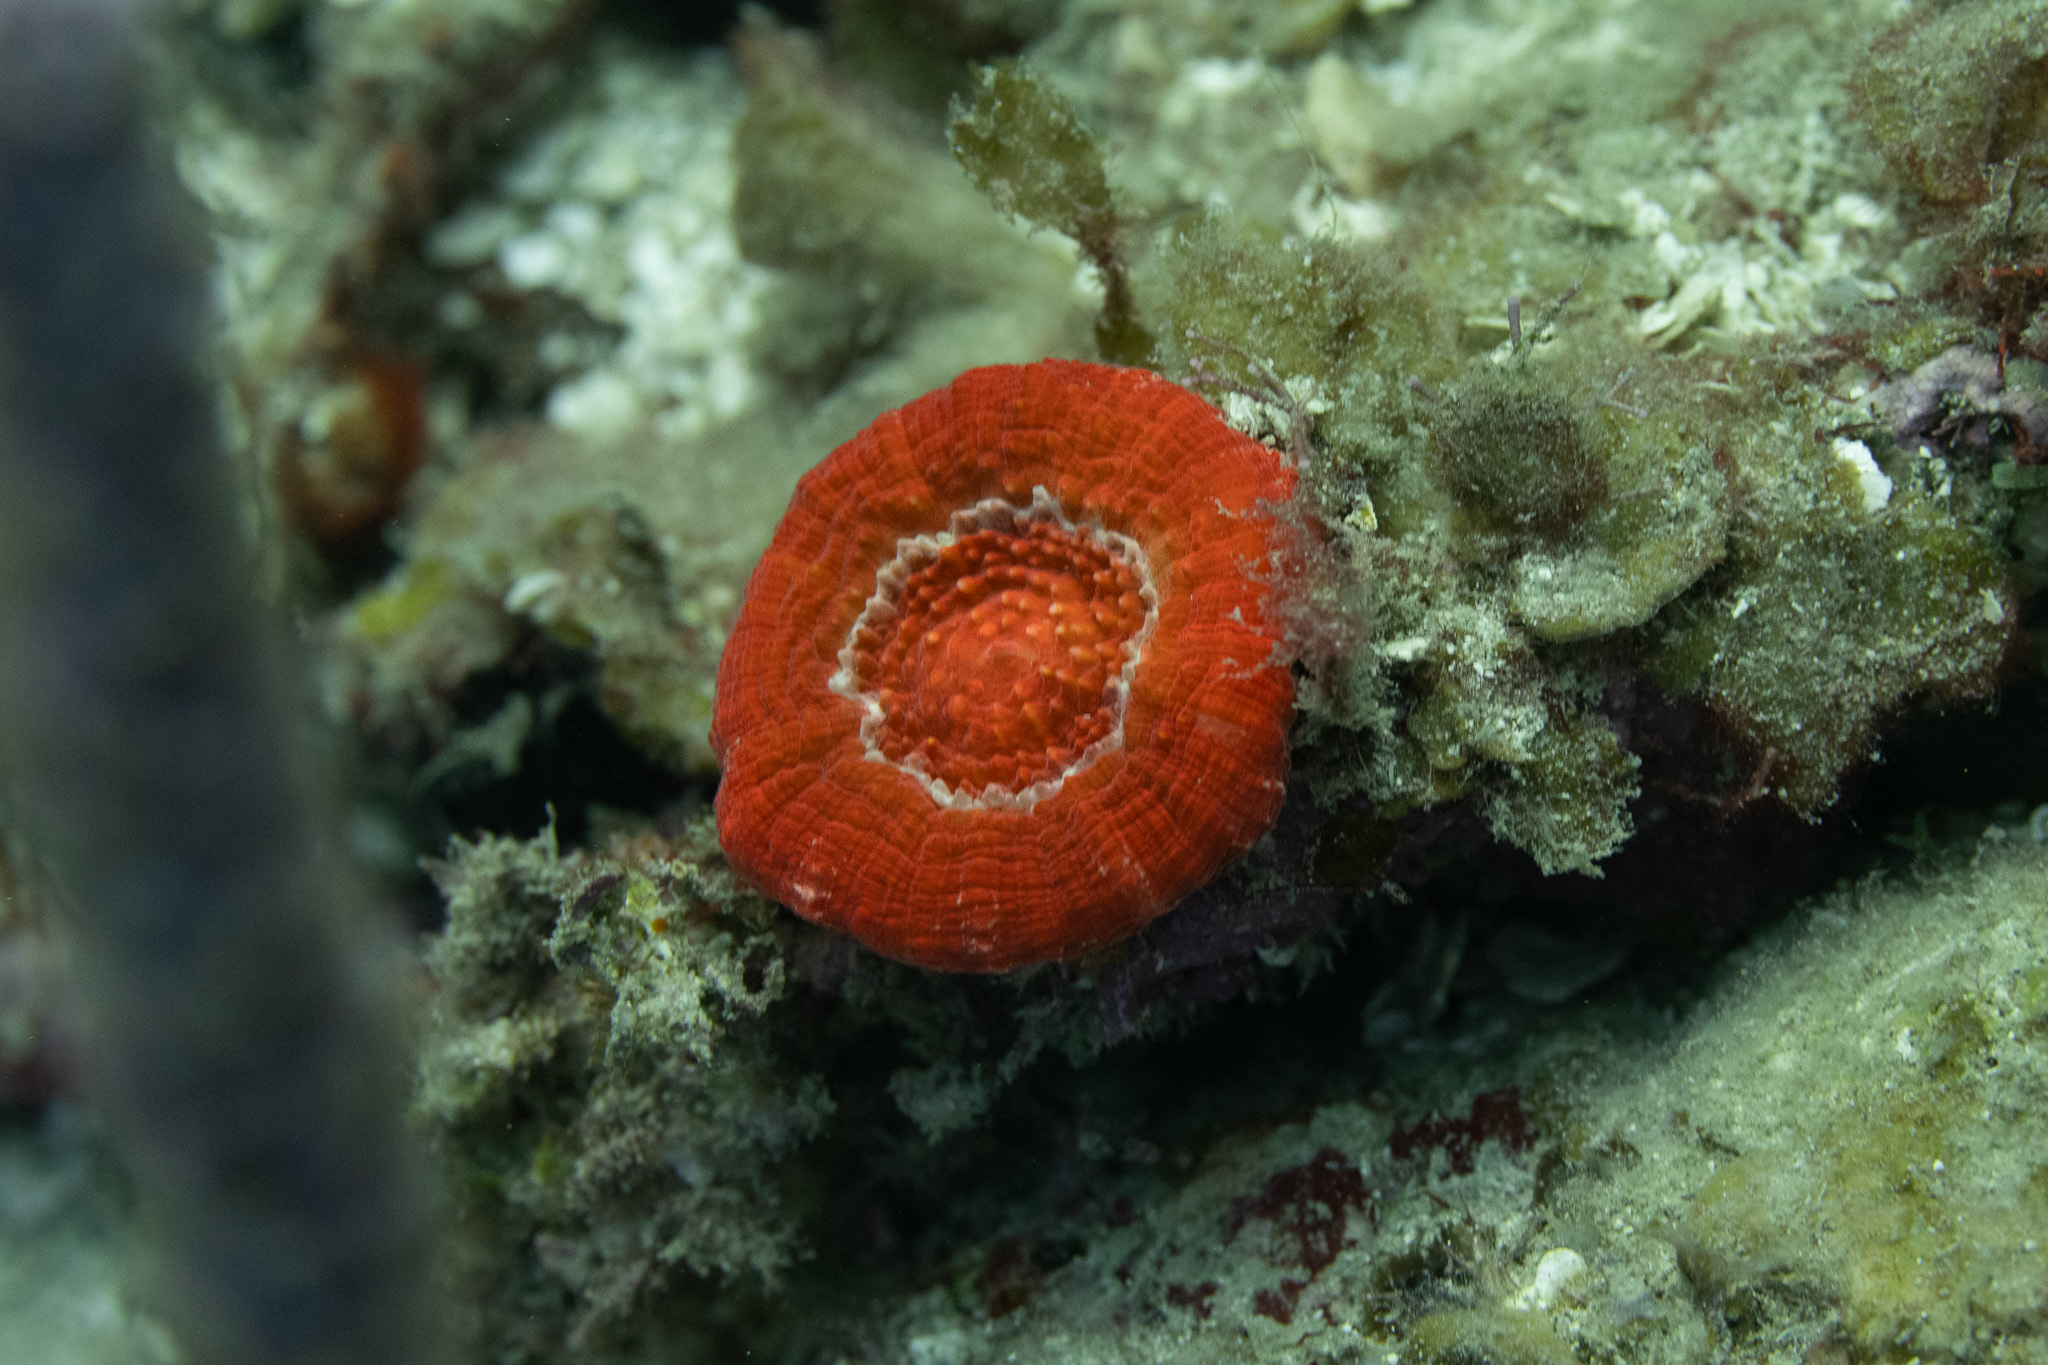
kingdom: Animalia
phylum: Cnidaria
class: Anthozoa
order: Scleractinia
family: Faviidae
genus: Scolymia
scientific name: Scolymia cubensis
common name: Artichoke coral
